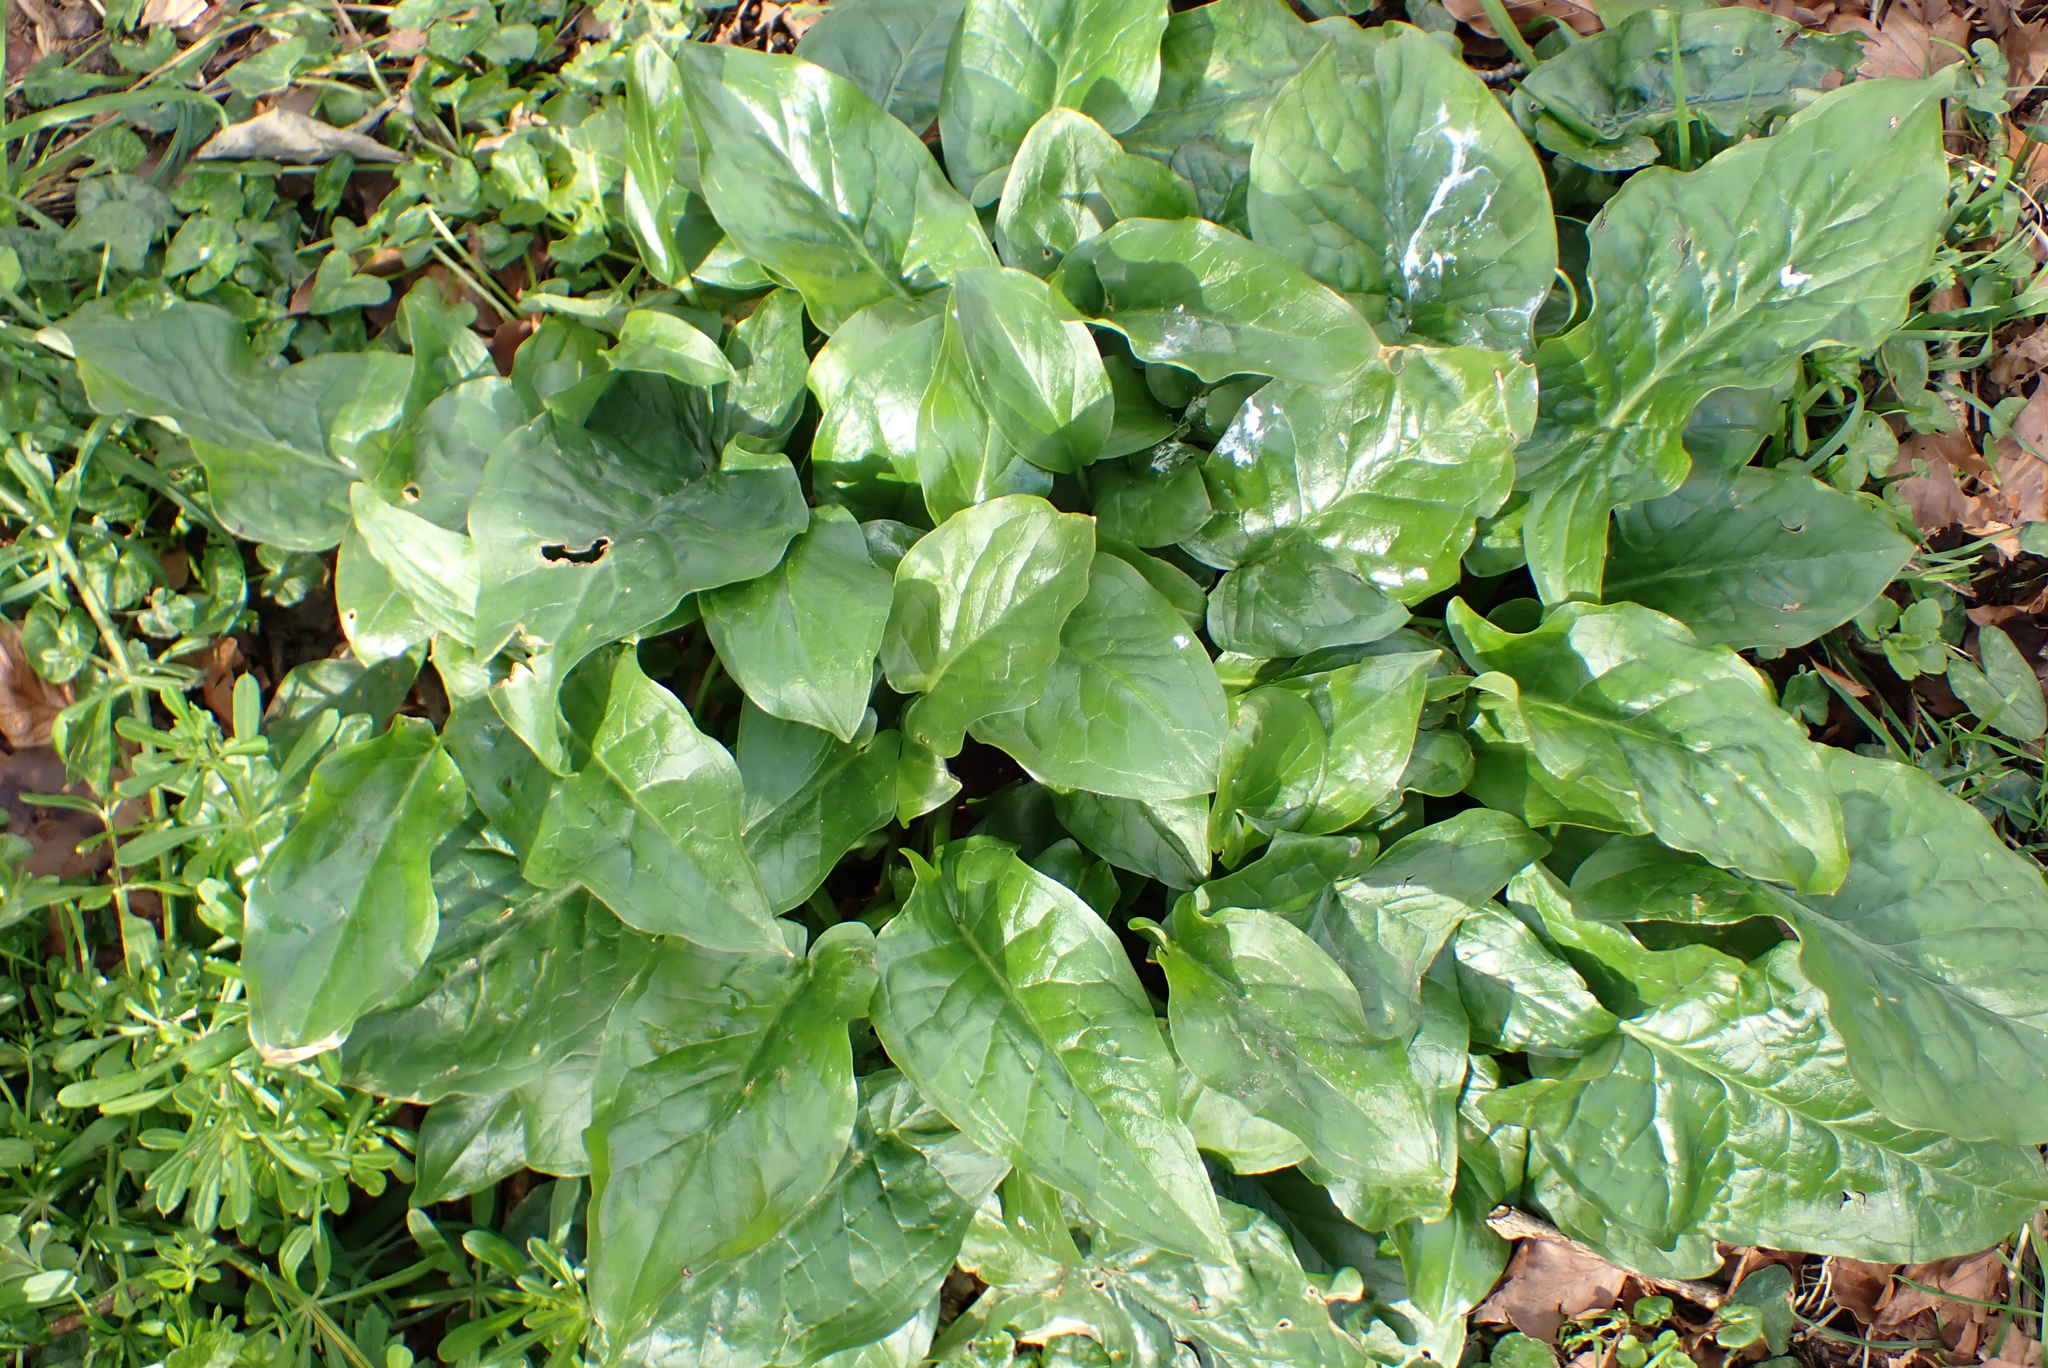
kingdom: Plantae
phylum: Tracheophyta
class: Liliopsida
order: Alismatales
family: Araceae
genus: Arum
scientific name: Arum maculatum
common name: Lords-and-ladies
